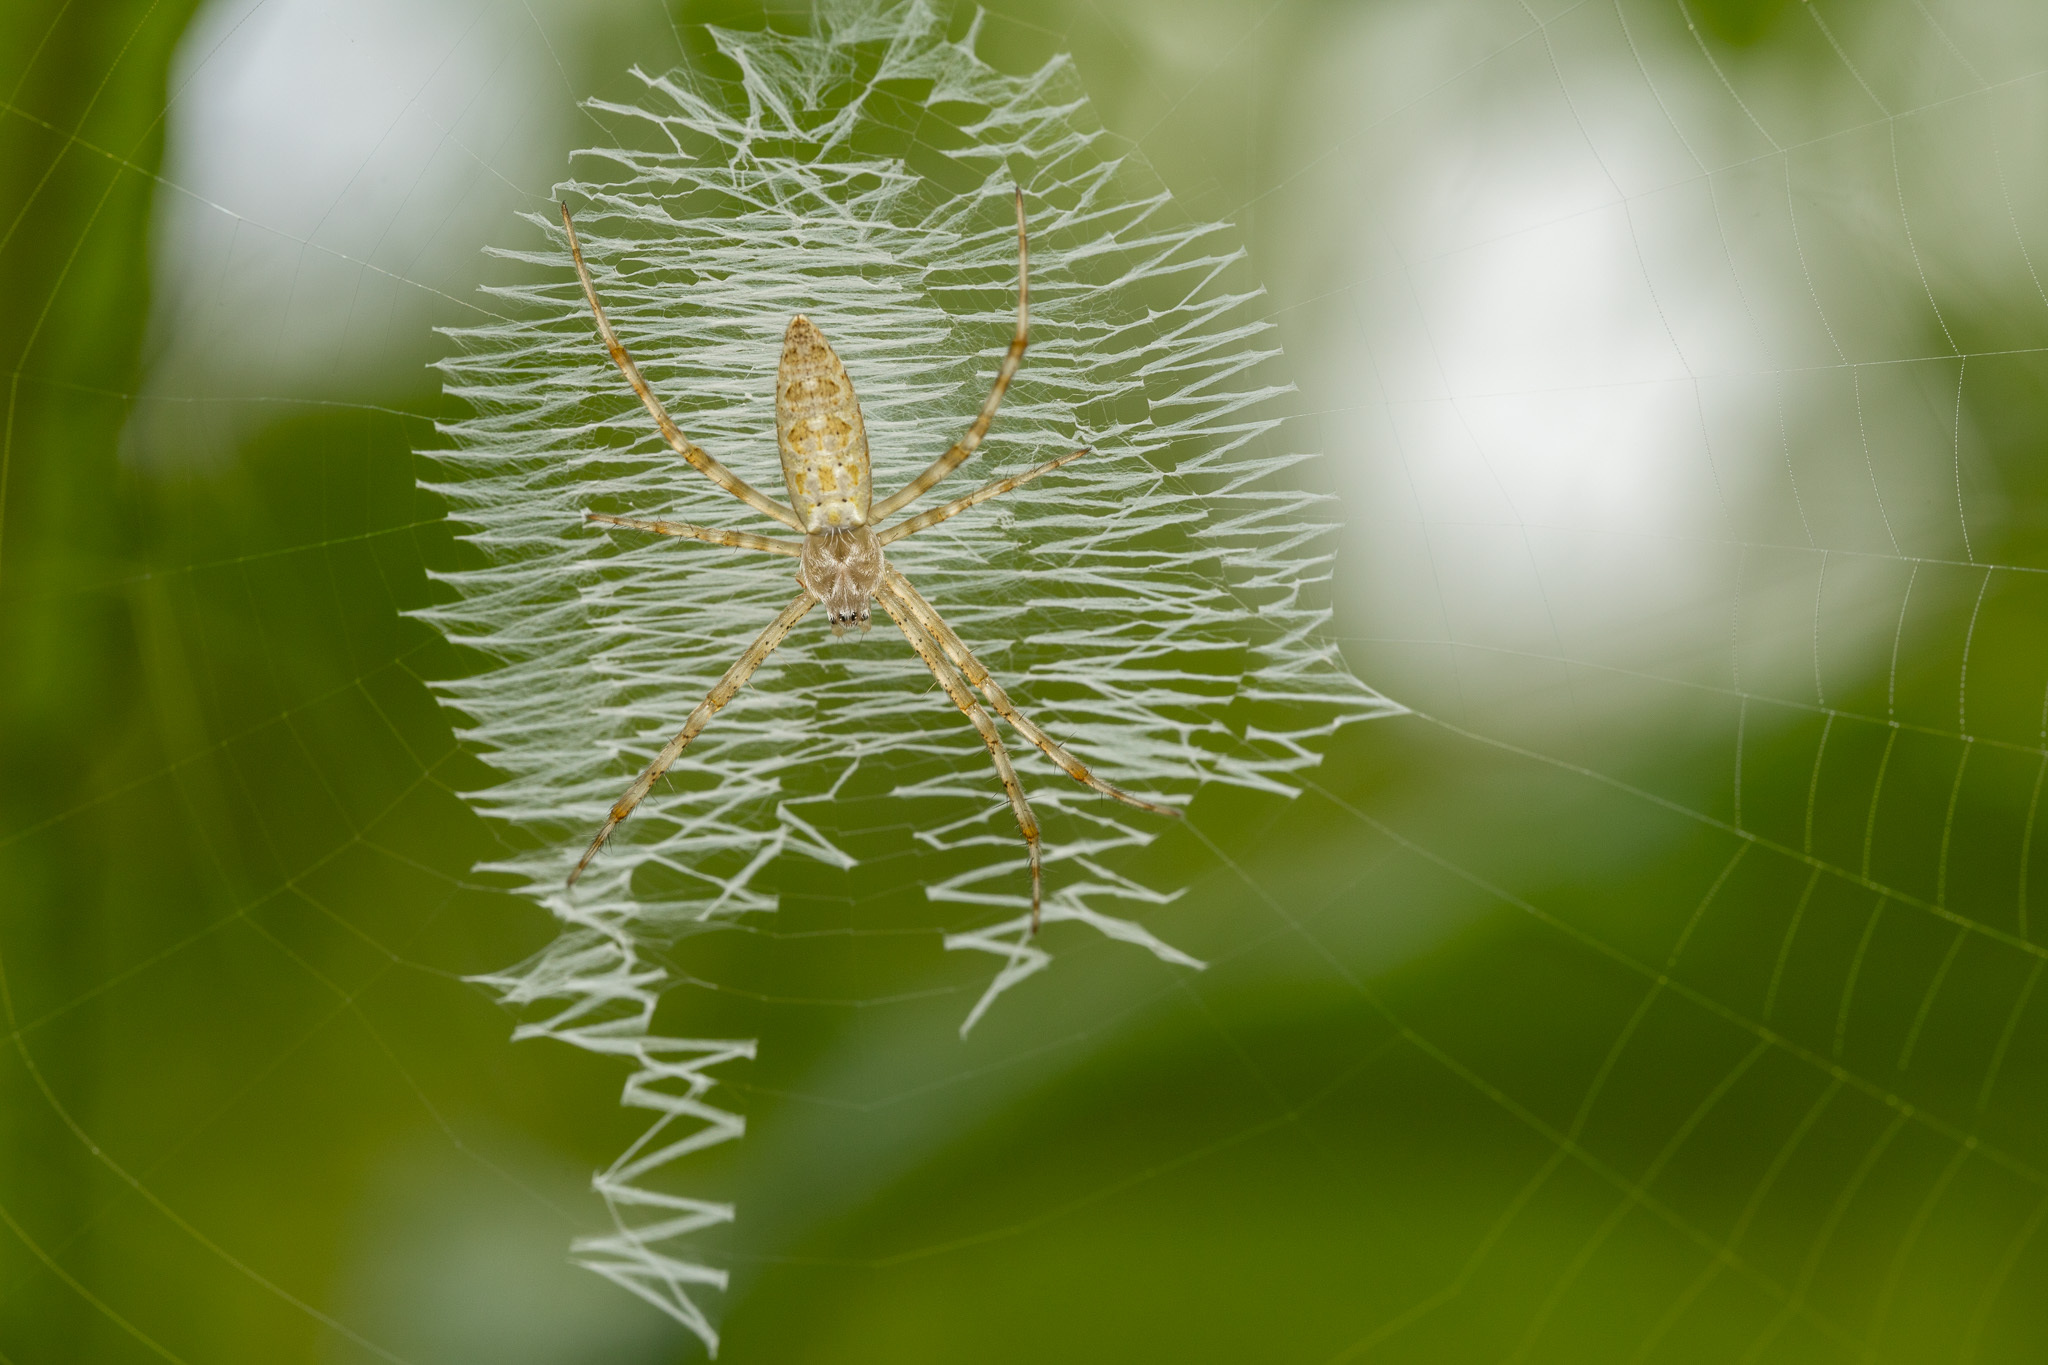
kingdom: Animalia
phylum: Arthropoda
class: Arachnida
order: Araneae
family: Araneidae
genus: Argiope
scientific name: Argiope aurantia
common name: Orb weavers
